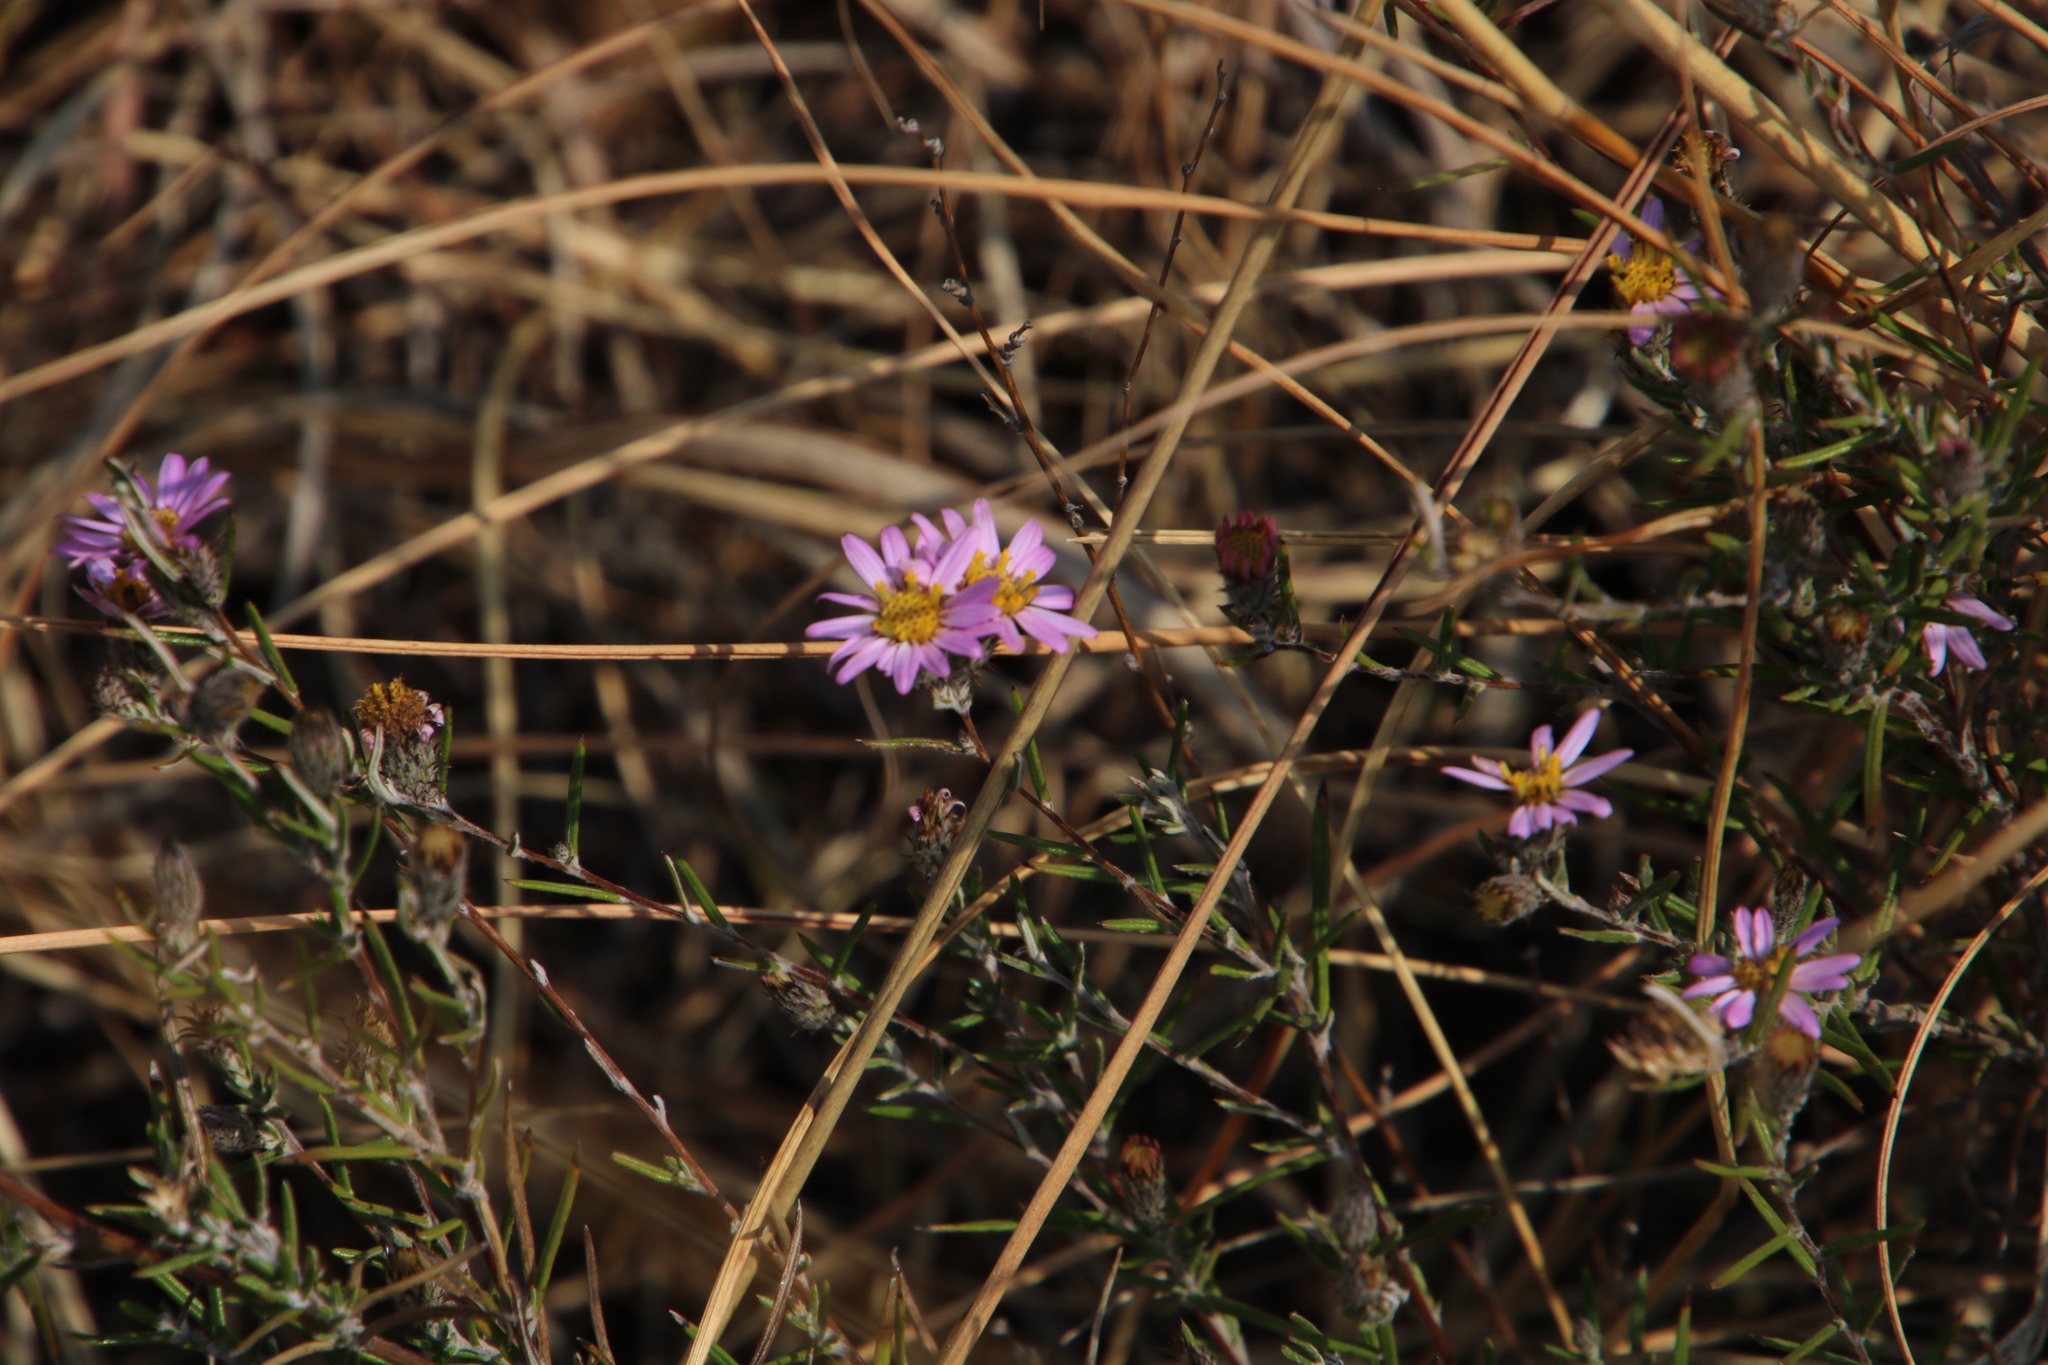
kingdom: Plantae
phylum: Tracheophyta
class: Magnoliopsida
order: Asterales
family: Asteraceae
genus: Athrixia
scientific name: Athrixia elata
